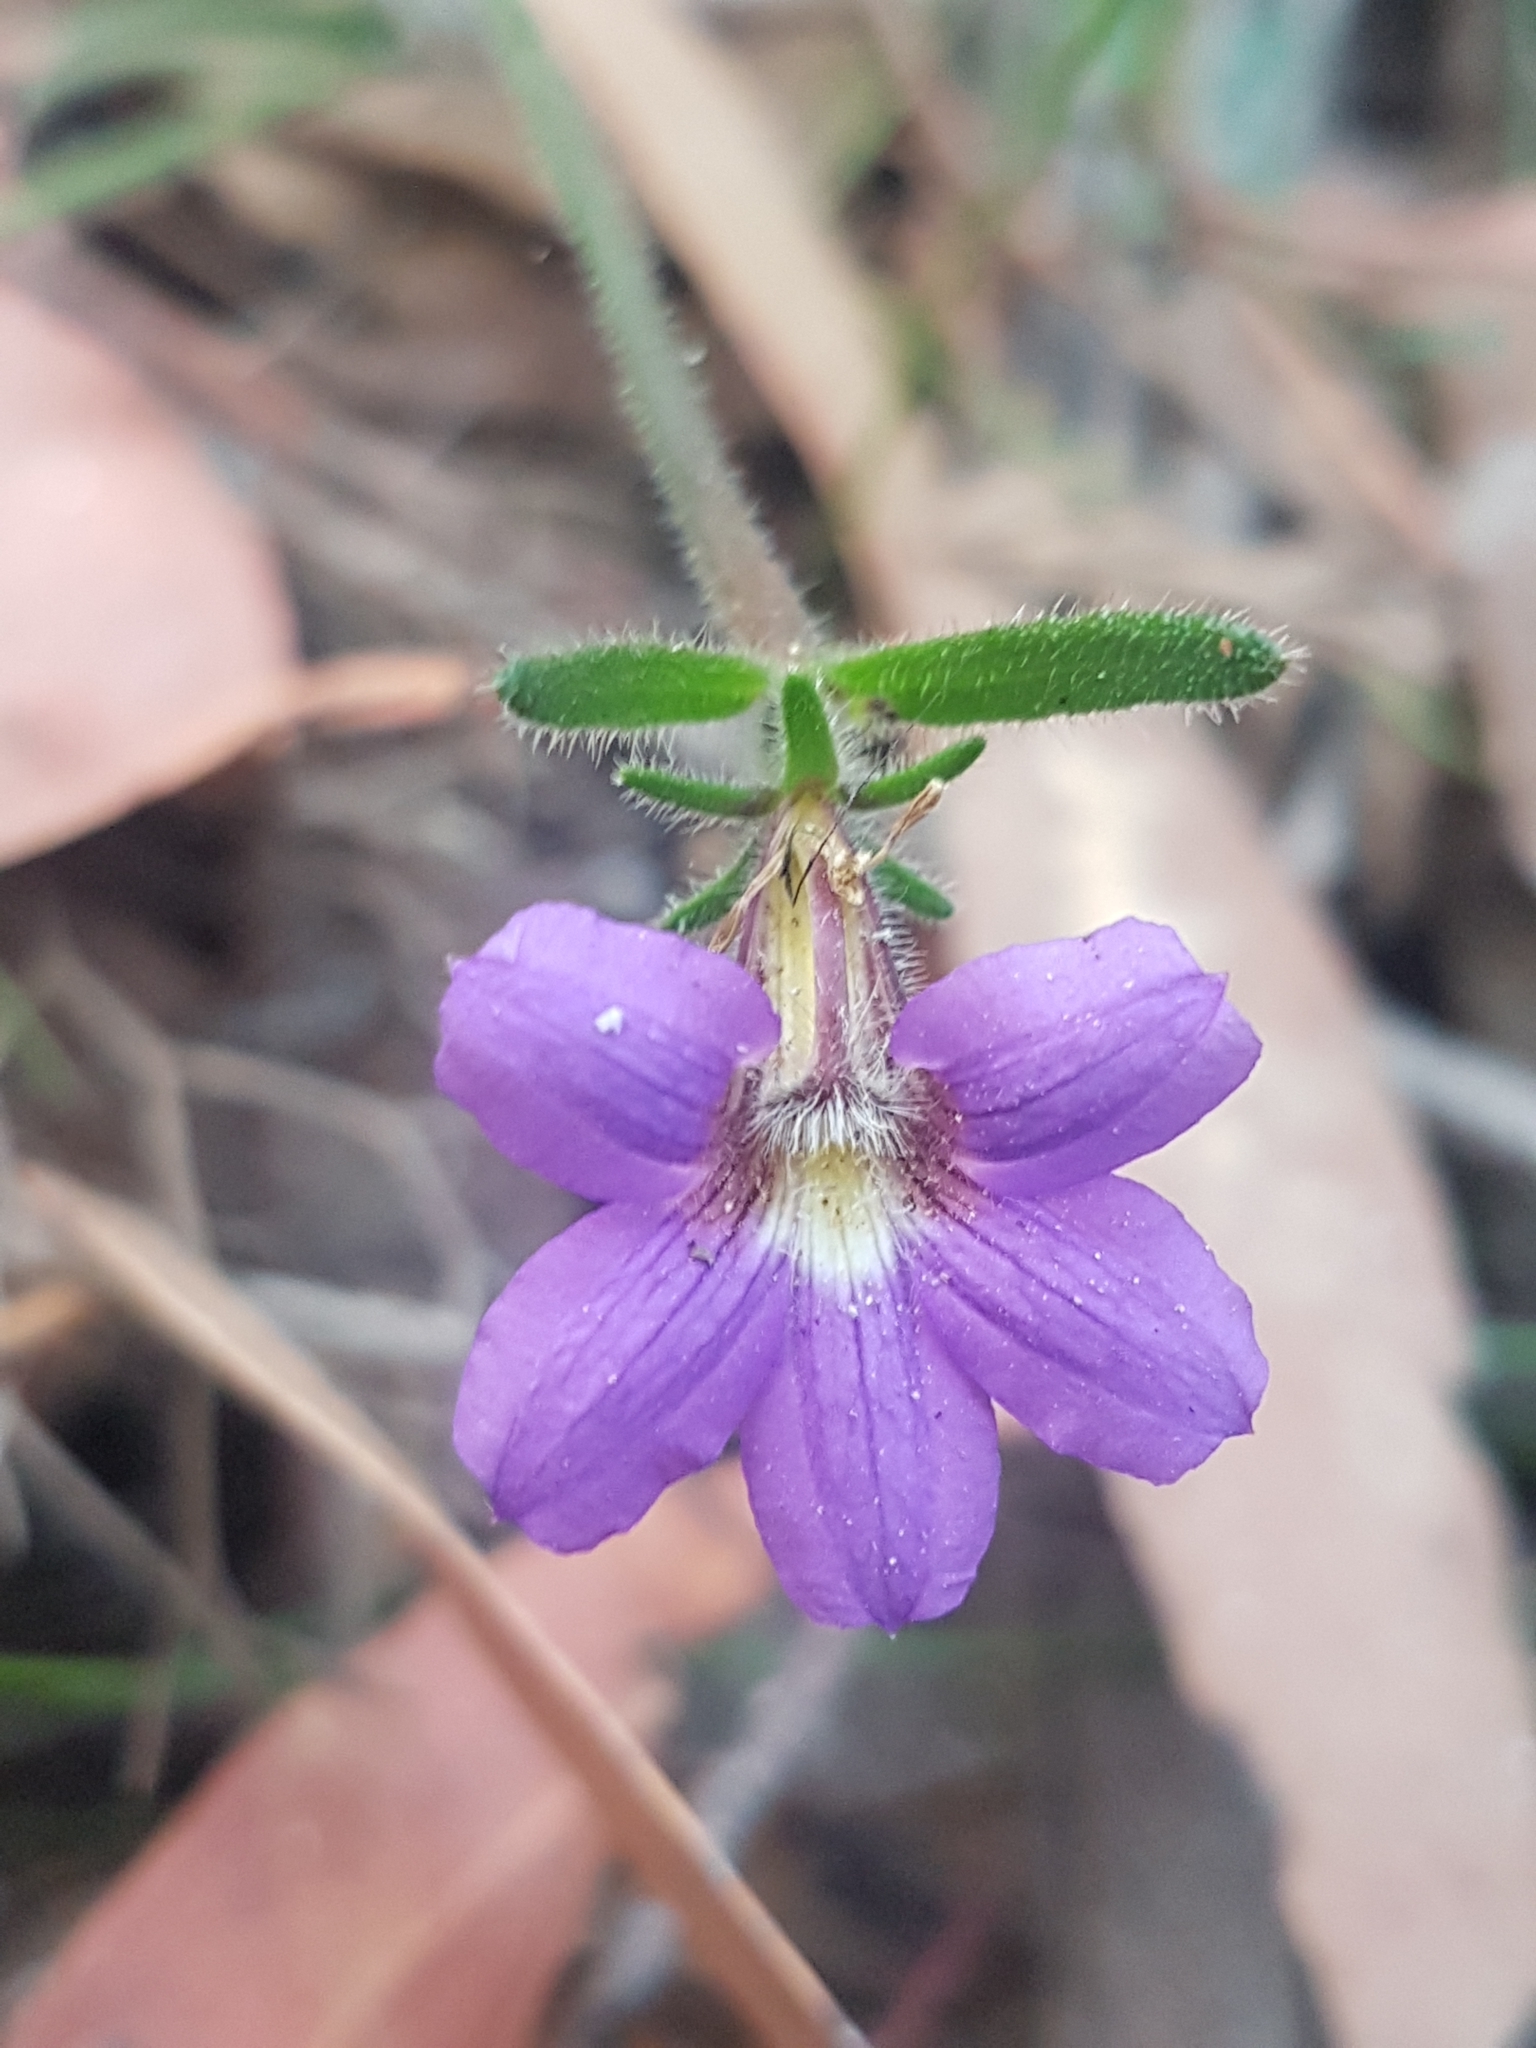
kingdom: Plantae
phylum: Tracheophyta
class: Magnoliopsida
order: Asterales
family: Goodeniaceae
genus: Scaevola
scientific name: Scaevola ramosissima
